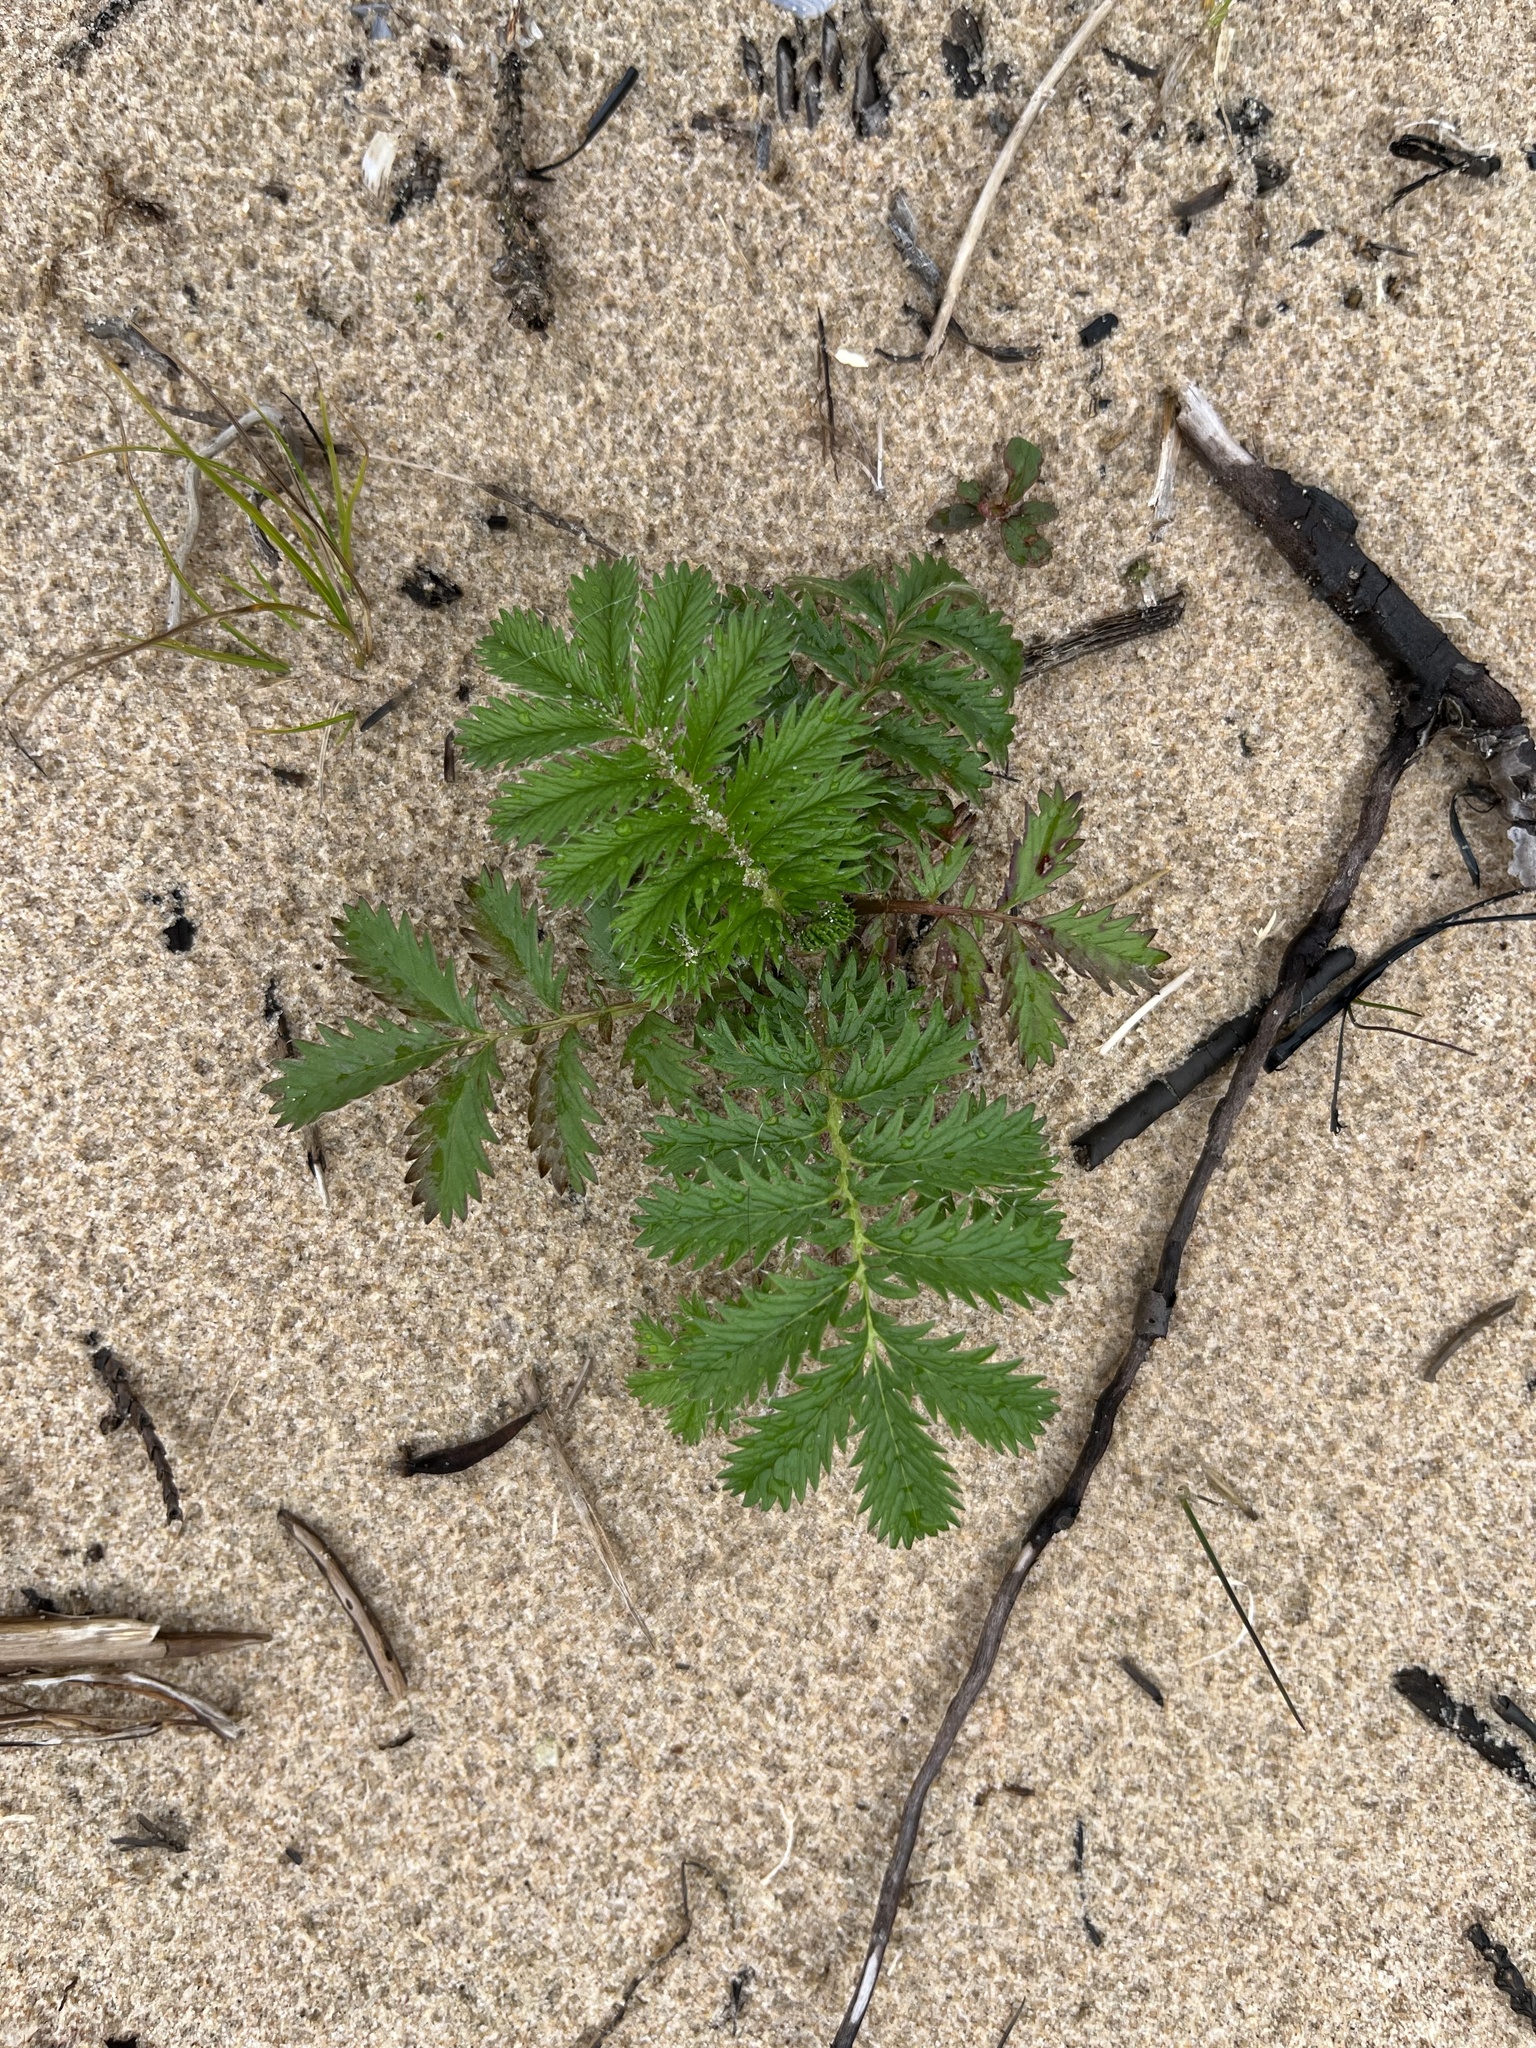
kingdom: Plantae
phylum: Tracheophyta
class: Magnoliopsida
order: Rosales
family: Rosaceae
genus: Argentina
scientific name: Argentina anserina
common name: Common silverweed
